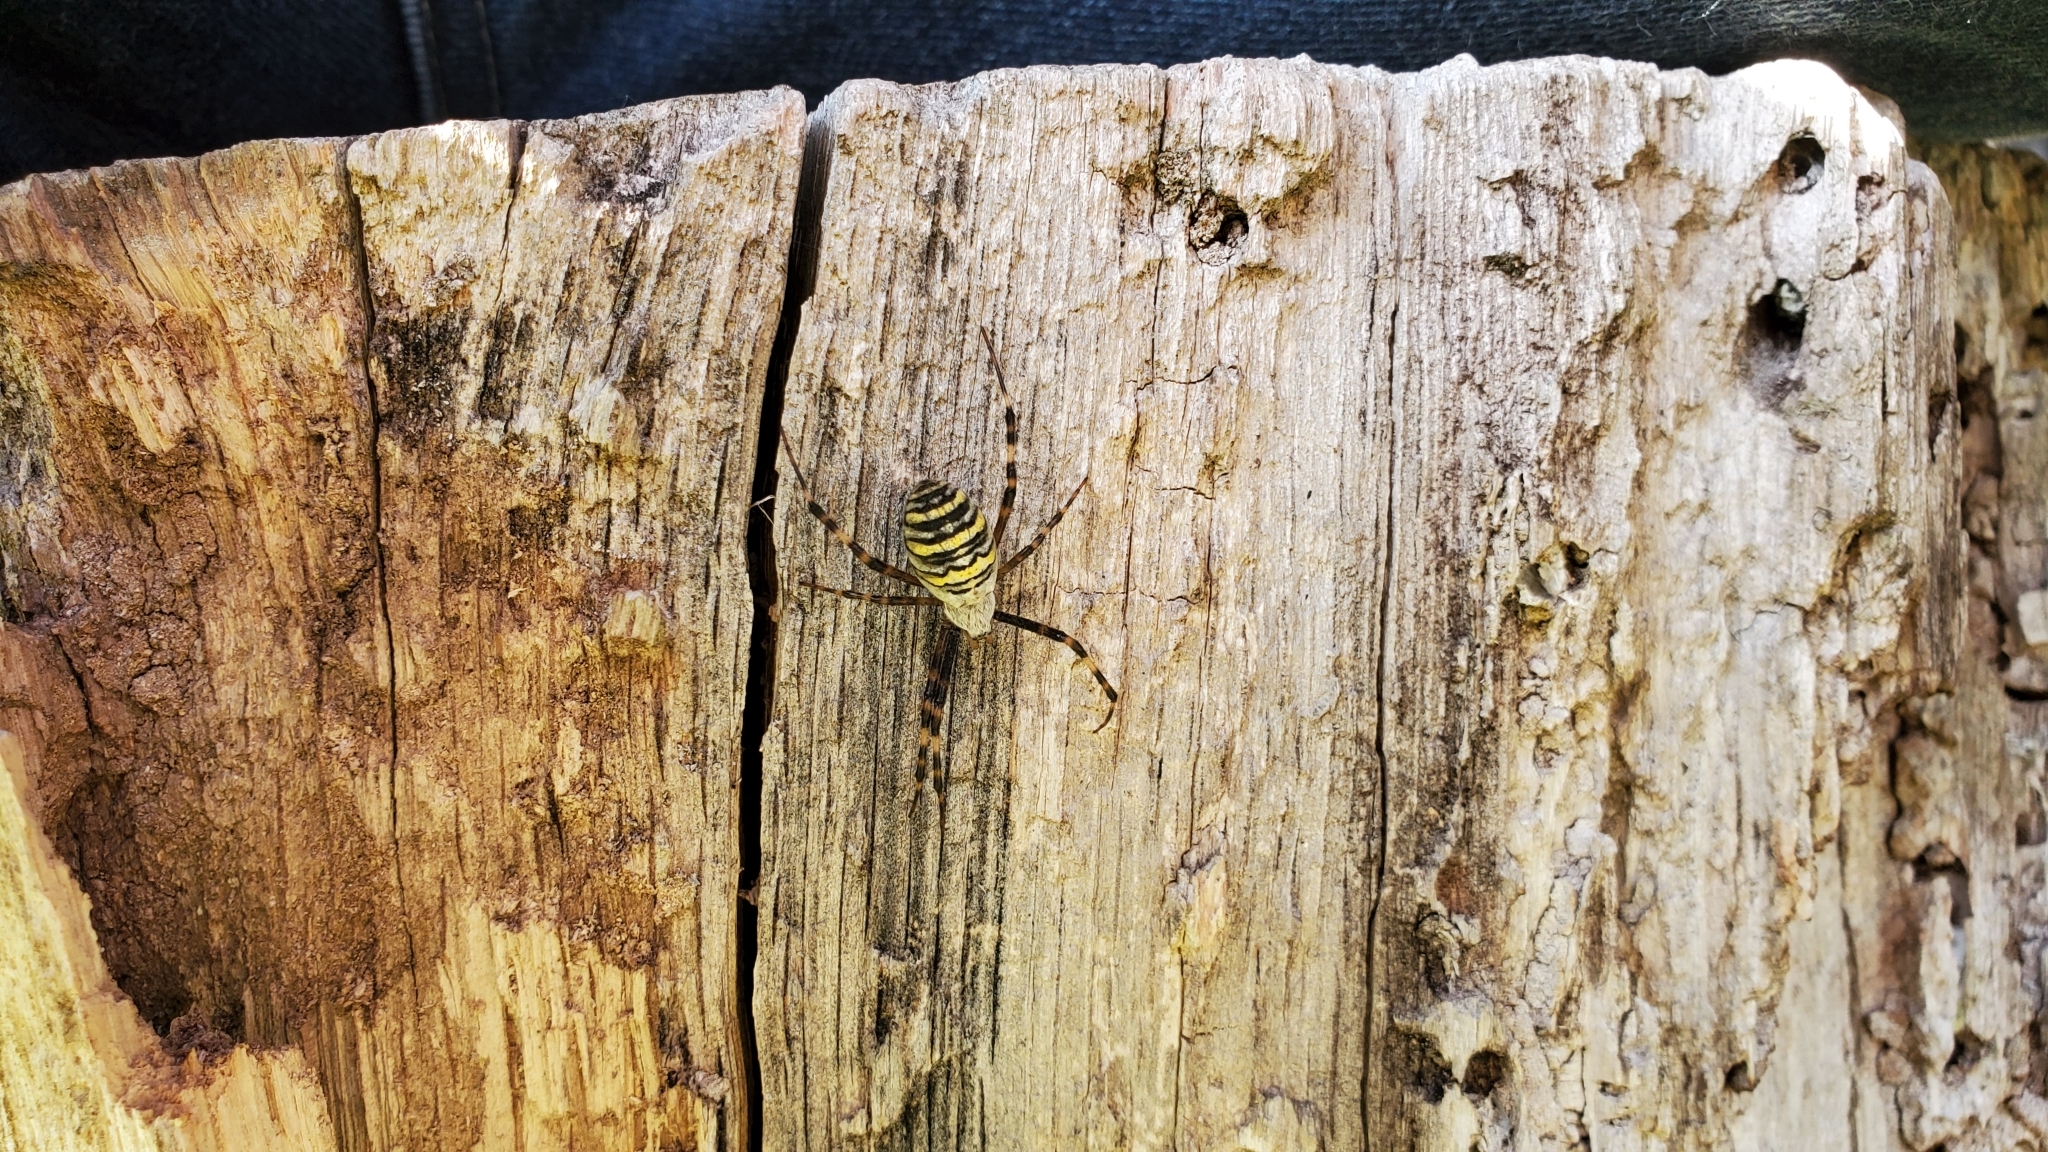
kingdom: Animalia
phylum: Arthropoda
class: Arachnida
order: Araneae
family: Araneidae
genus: Argiope
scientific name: Argiope bruennichi
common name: Wasp spider
